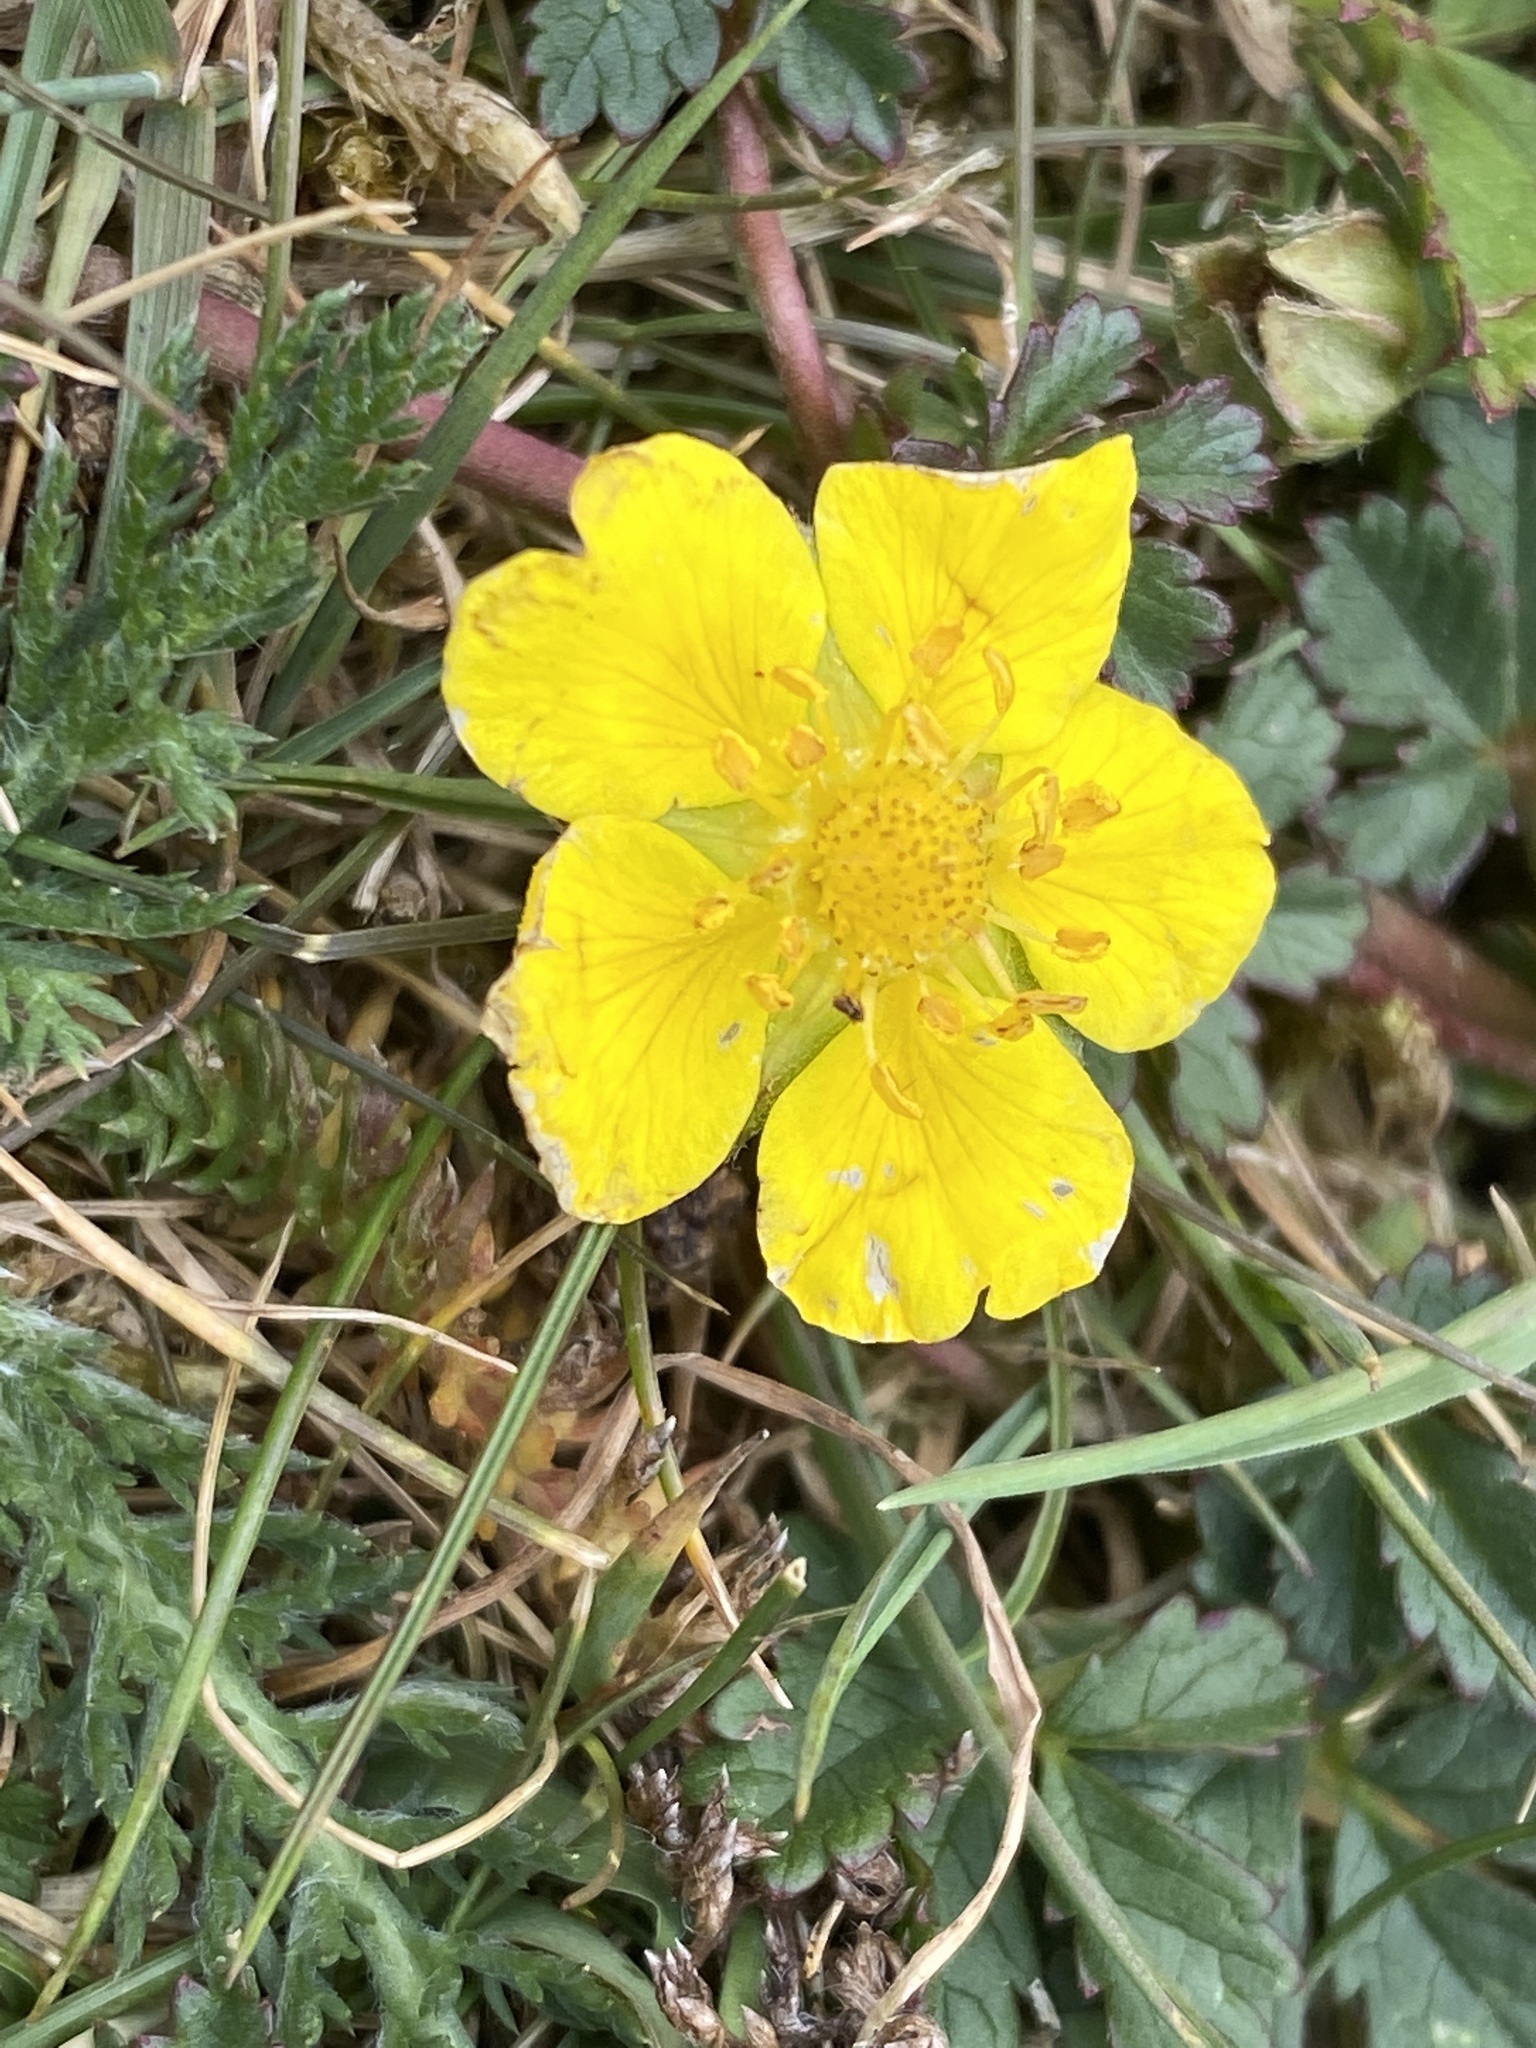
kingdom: Plantae
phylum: Tracheophyta
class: Magnoliopsida
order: Rosales
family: Rosaceae
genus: Potentilla
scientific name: Potentilla reptans
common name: Creeping cinquefoil
